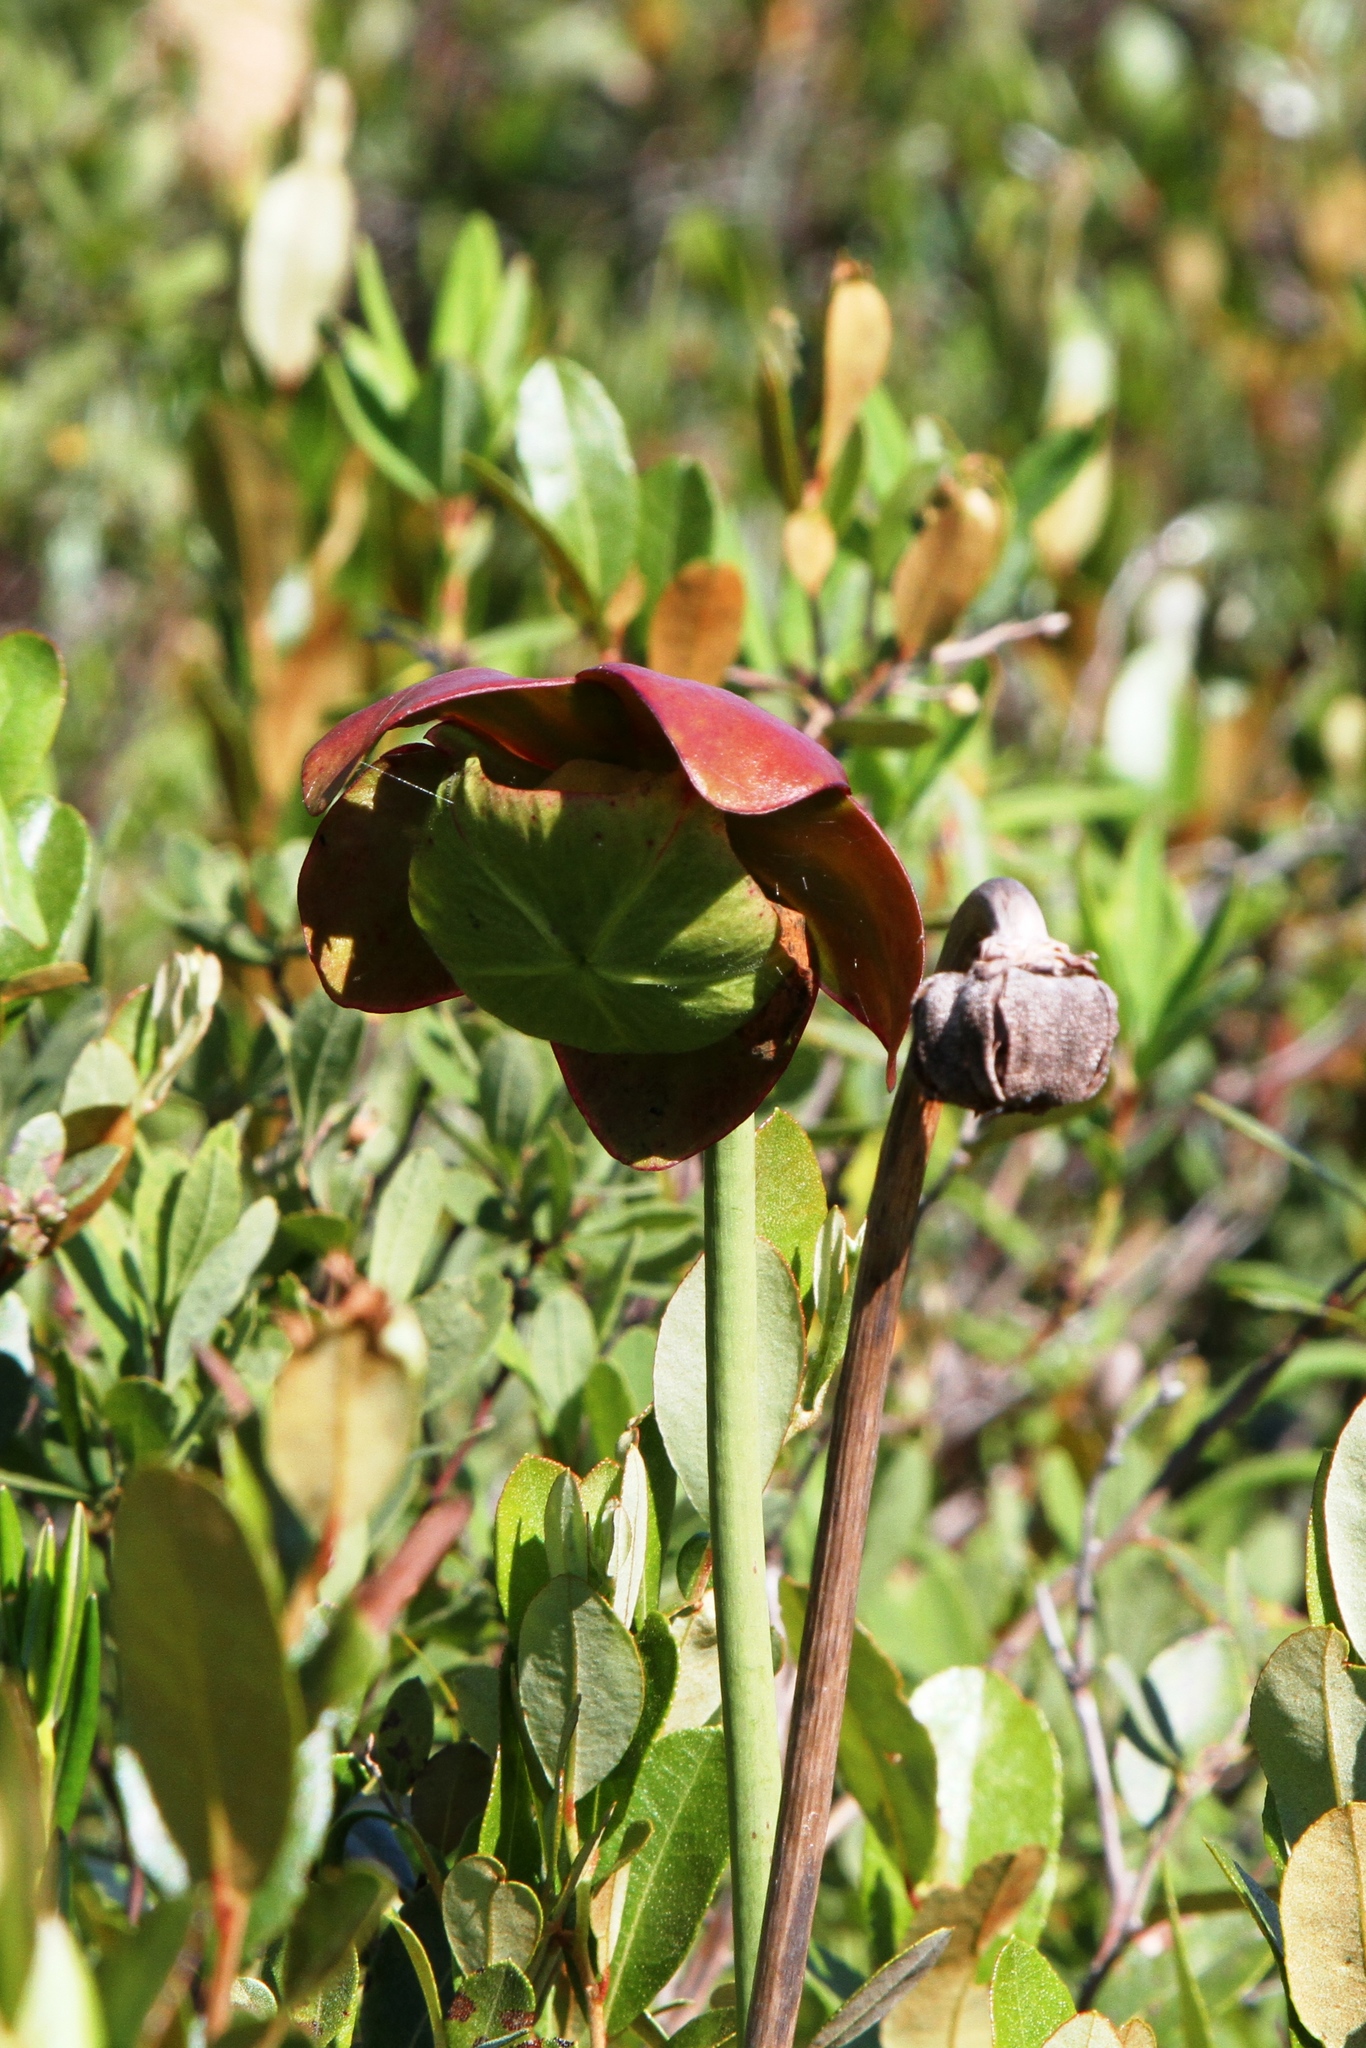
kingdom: Plantae
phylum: Tracheophyta
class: Magnoliopsida
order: Ericales
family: Sarraceniaceae
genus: Sarracenia
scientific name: Sarracenia purpurea
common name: Pitcherplant
